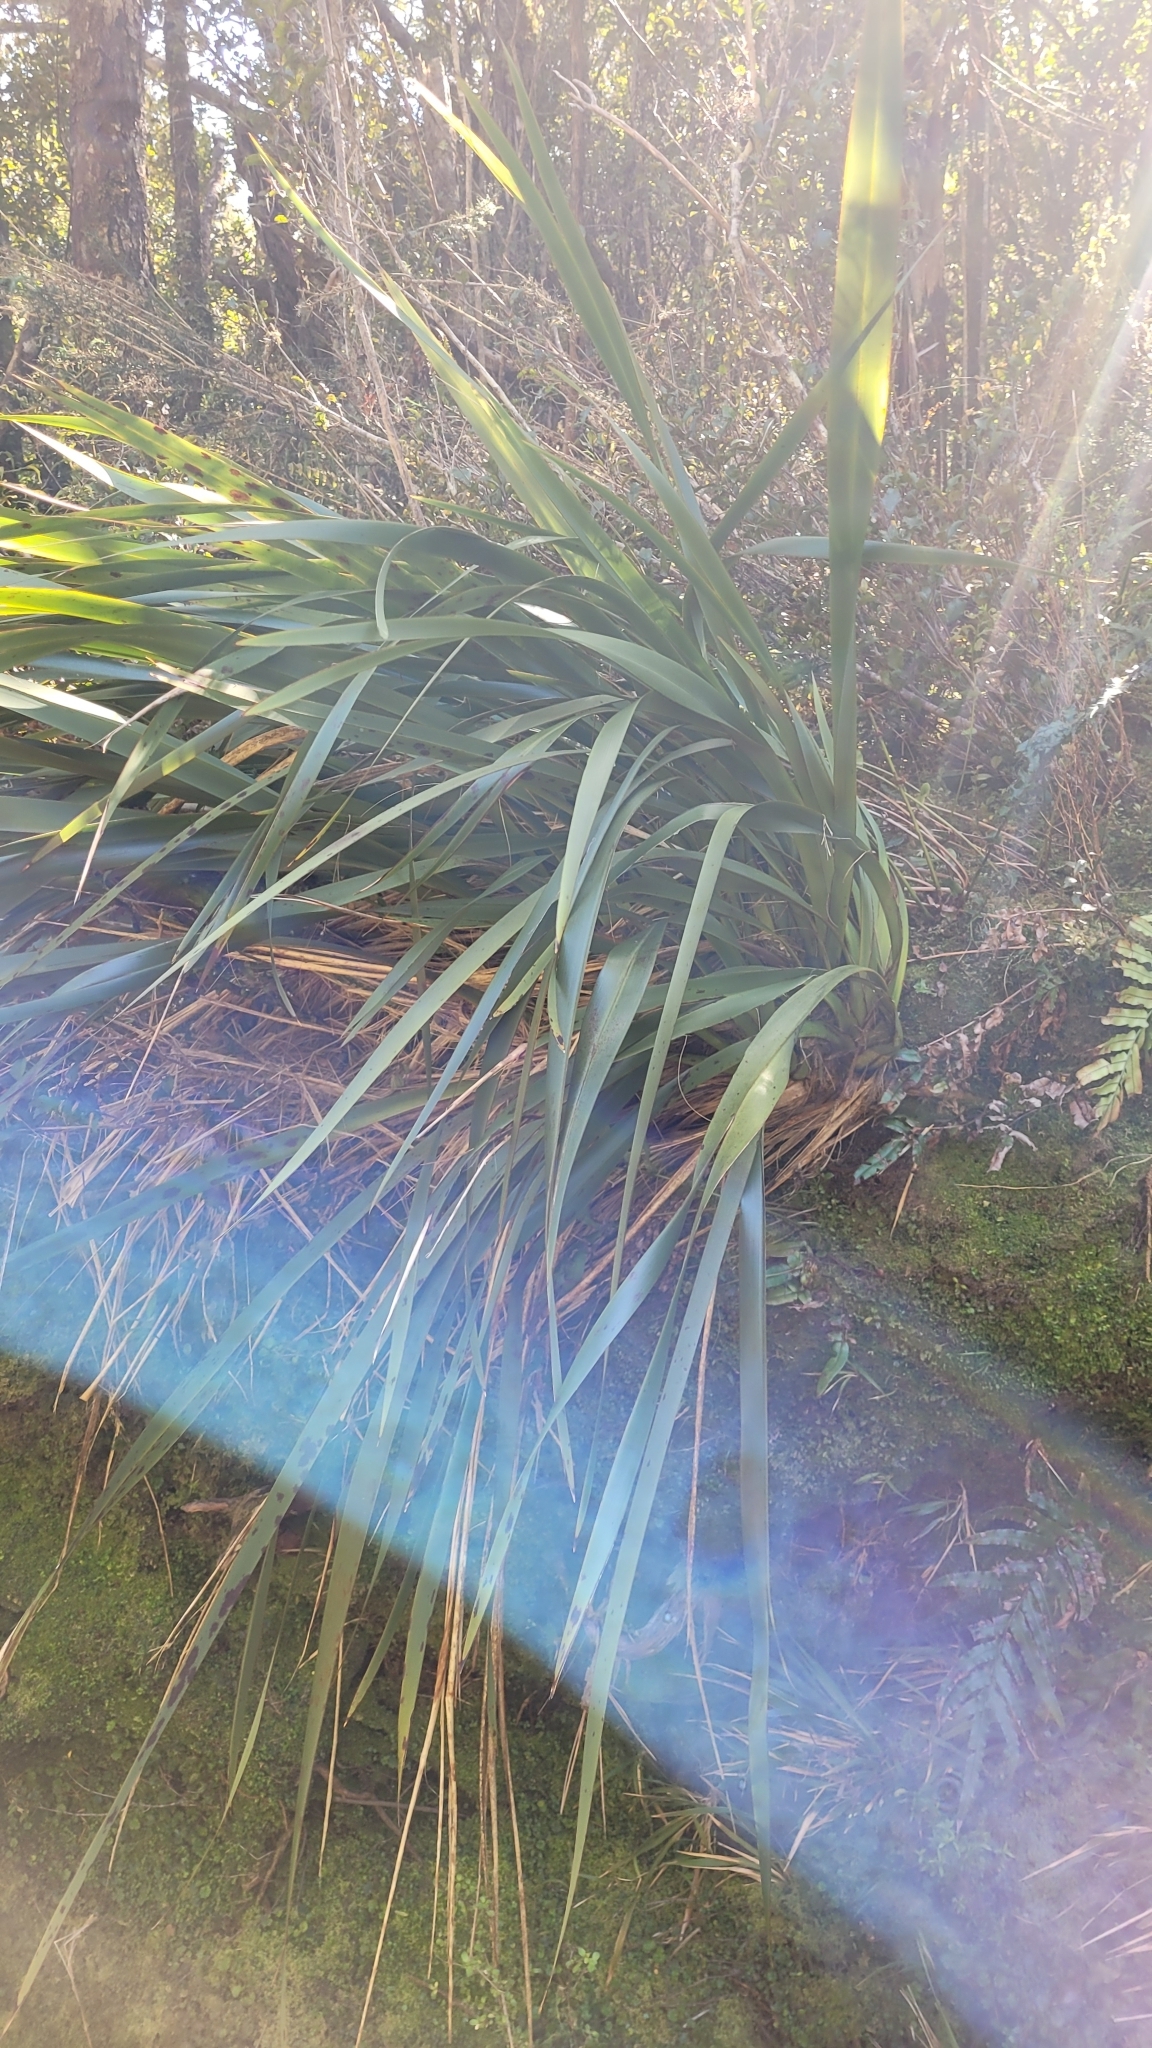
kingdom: Plantae
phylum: Tracheophyta
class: Liliopsida
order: Asparagales
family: Asphodelaceae
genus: Phormium
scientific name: Phormium colensoi
